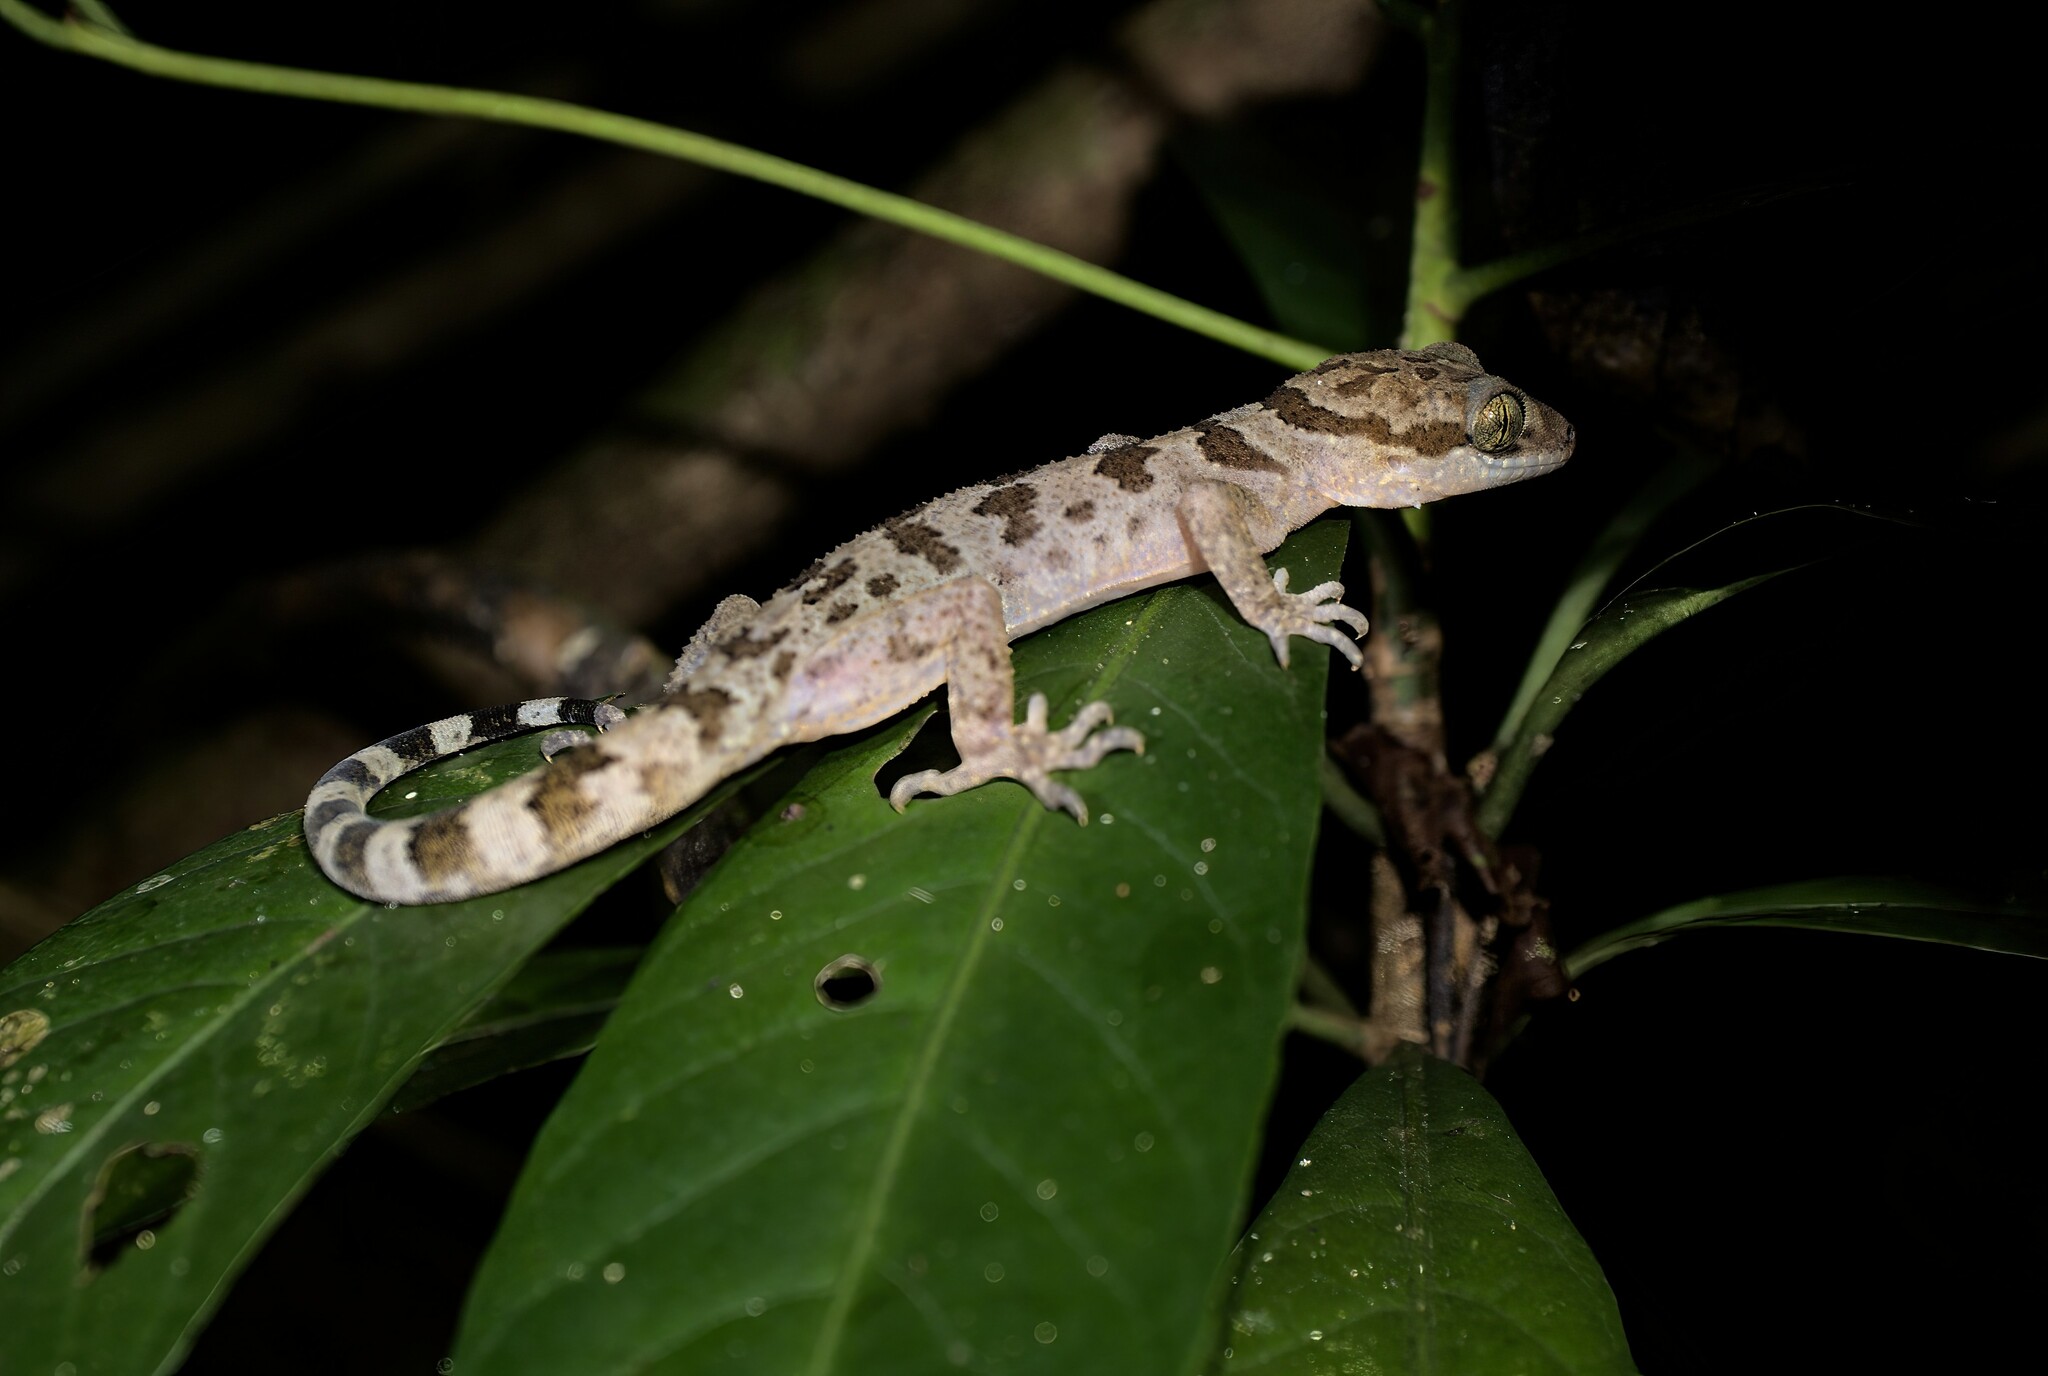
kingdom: Animalia
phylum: Chordata
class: Squamata
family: Gekkonidae
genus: Cyrtodactylus
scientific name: Cyrtodactylus cattienensis
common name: Cat tien bent-toed gecko
